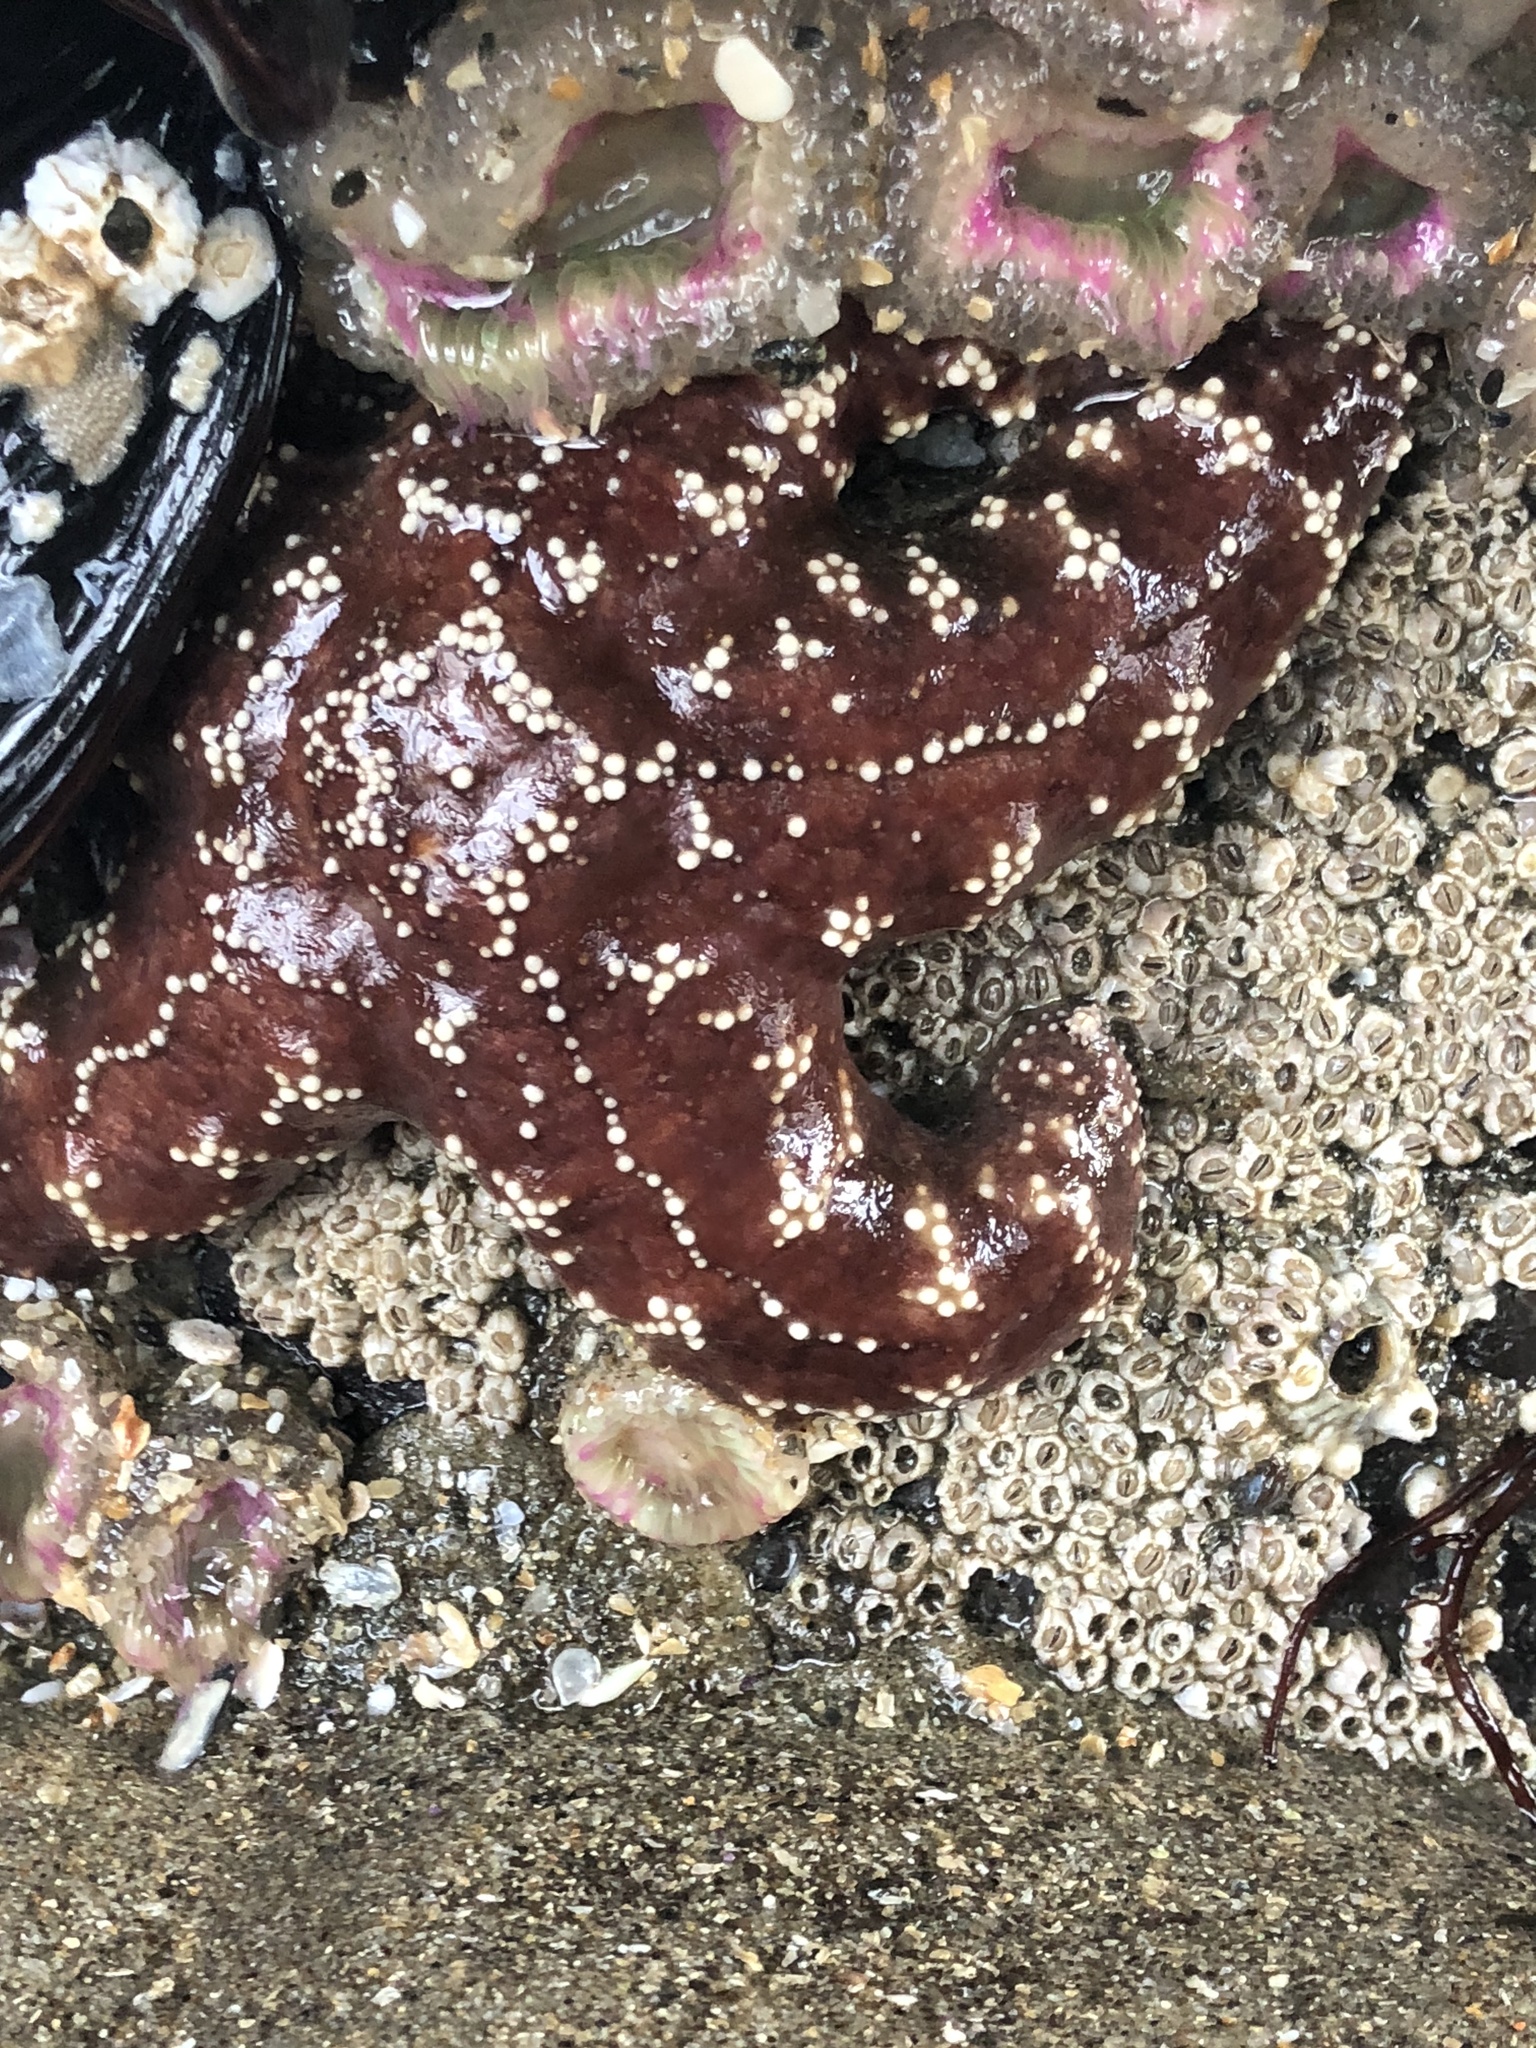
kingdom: Animalia
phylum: Echinodermata
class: Asteroidea
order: Forcipulatida
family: Asteriidae
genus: Pisaster
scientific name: Pisaster ochraceus
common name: Ochre stars
